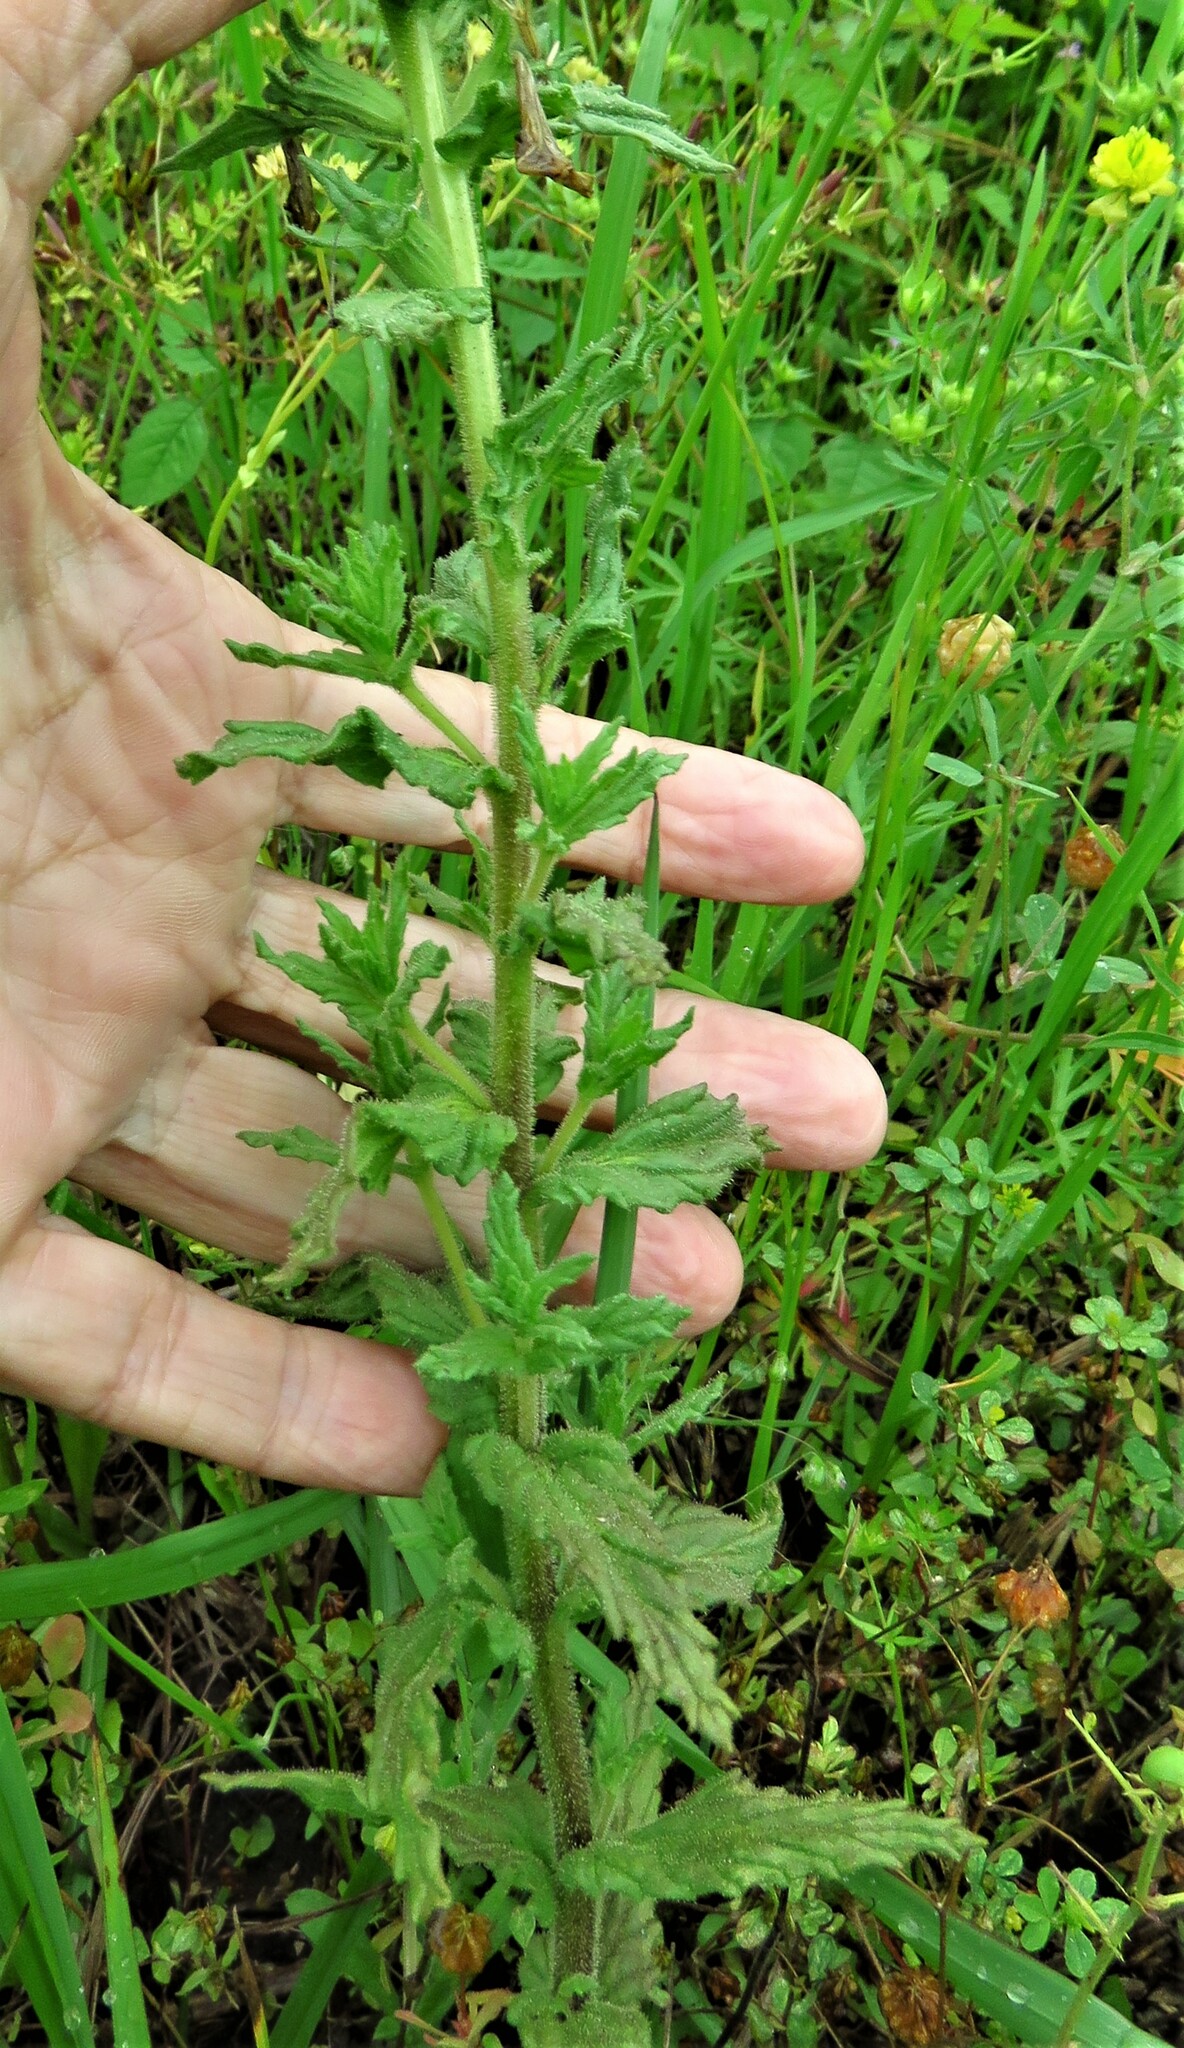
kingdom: Plantae
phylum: Tracheophyta
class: Magnoliopsida
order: Lamiales
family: Orobanchaceae
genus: Bellardia
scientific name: Bellardia viscosa
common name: Sticky parentucellia
